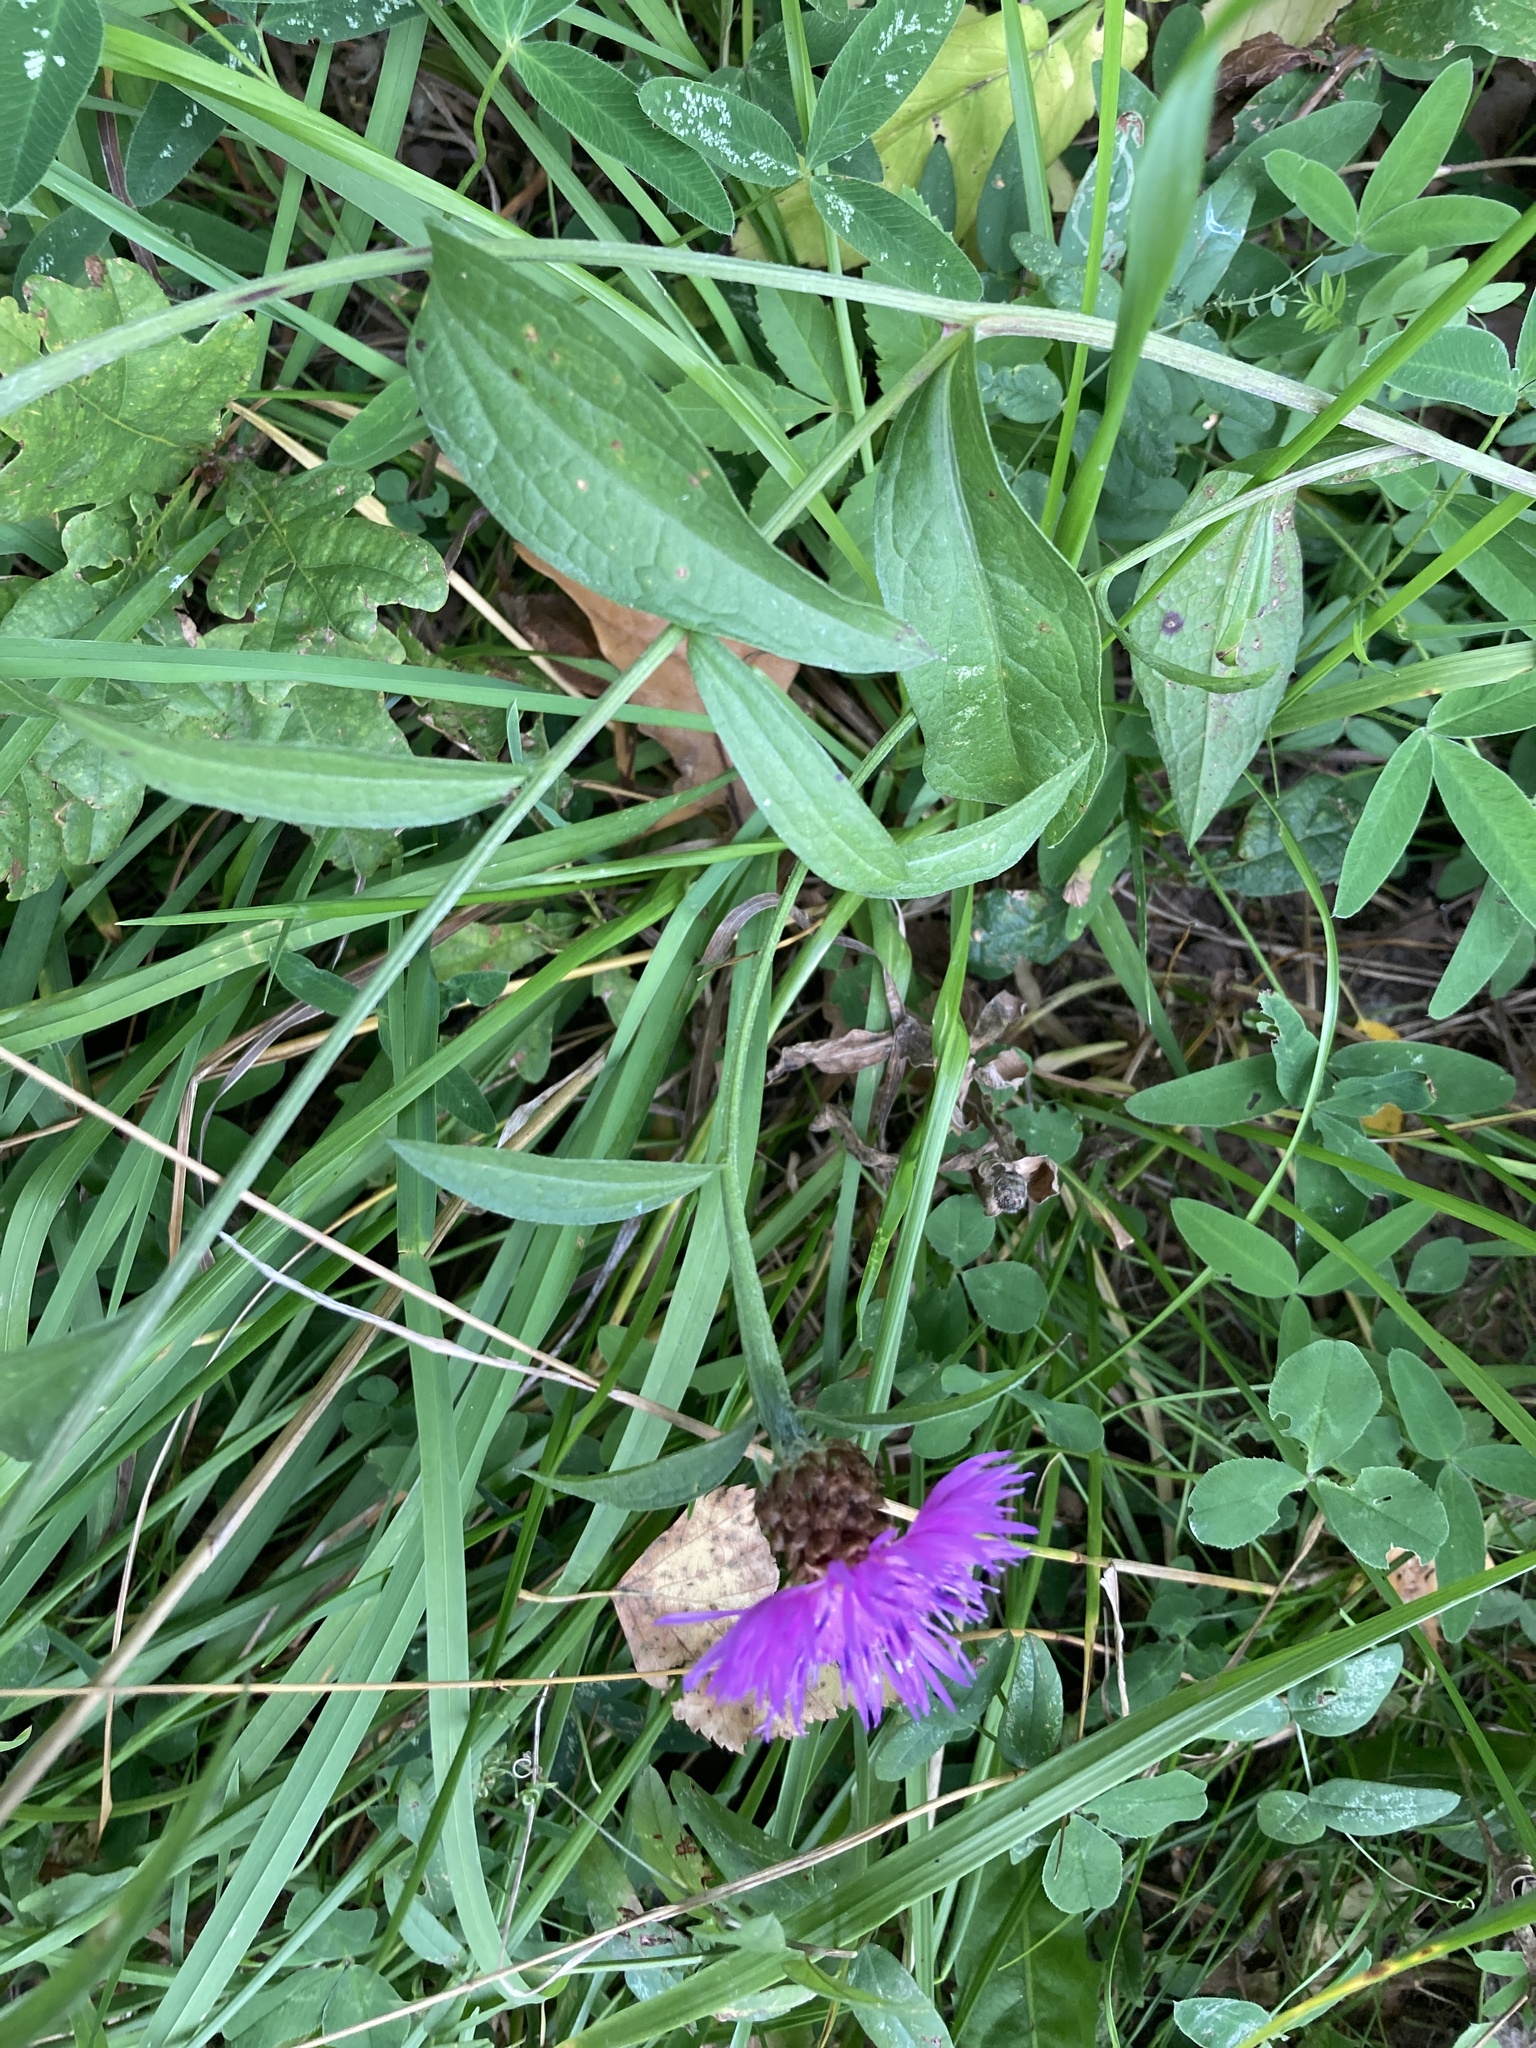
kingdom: Plantae
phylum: Tracheophyta
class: Magnoliopsida
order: Asterales
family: Asteraceae
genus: Centaurea
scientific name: Centaurea jacea
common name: Brown knapweed
